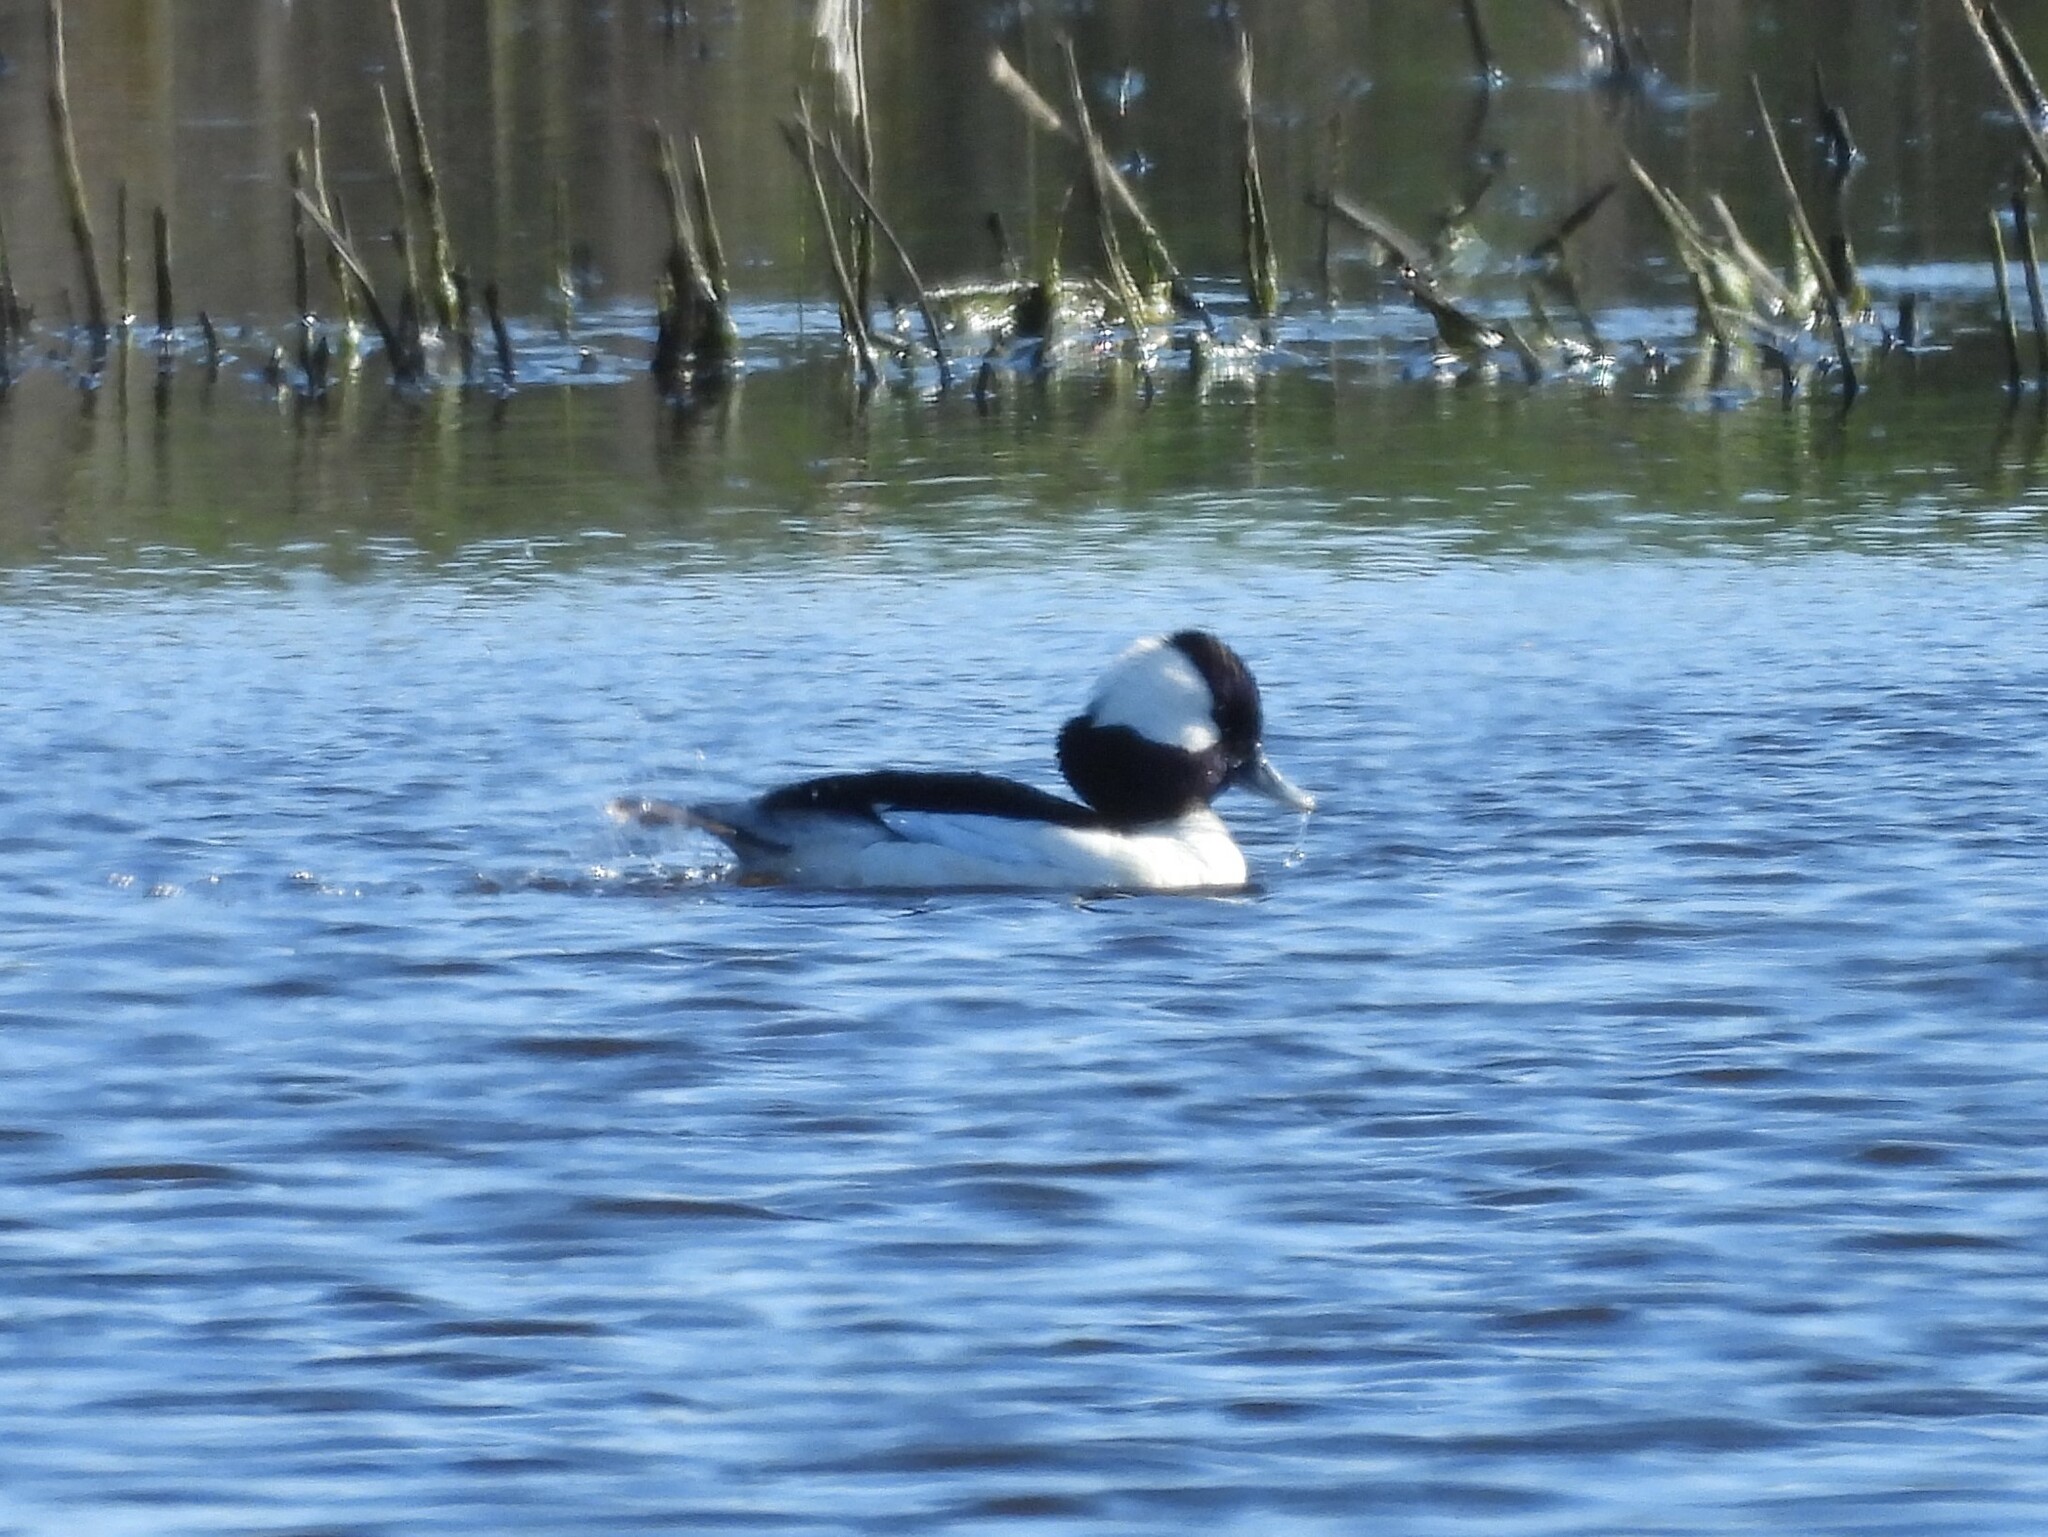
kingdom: Animalia
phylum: Chordata
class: Aves
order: Anseriformes
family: Anatidae
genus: Bucephala
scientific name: Bucephala albeola
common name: Bufflehead
